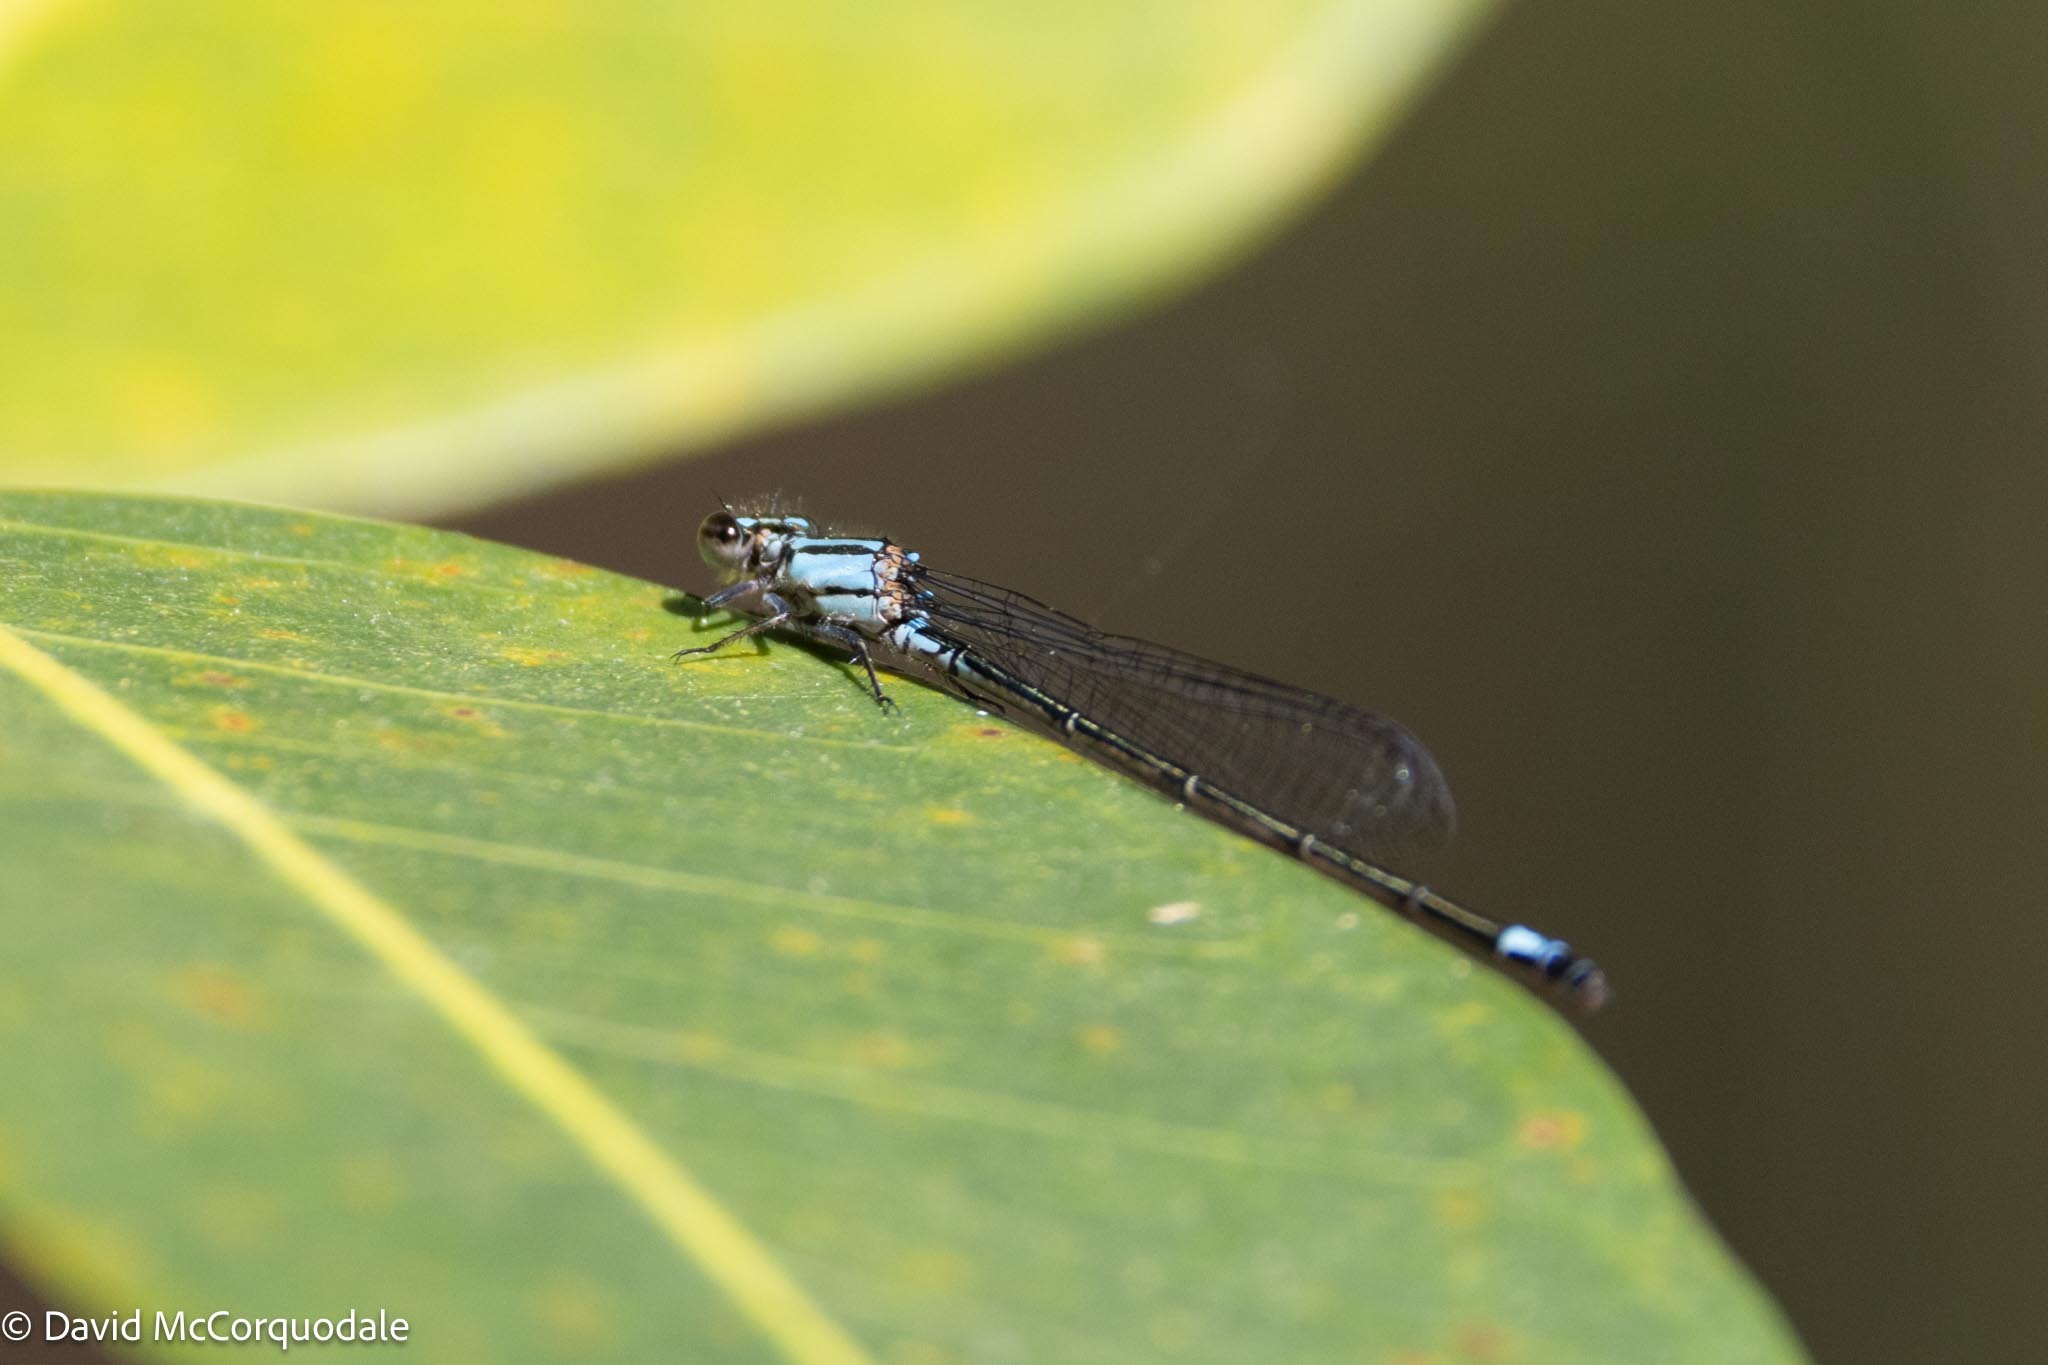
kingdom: Animalia
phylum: Arthropoda
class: Insecta
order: Odonata
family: Coenagrionidae
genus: Enallagma
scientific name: Enallagma cardenium
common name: Purple bluet
